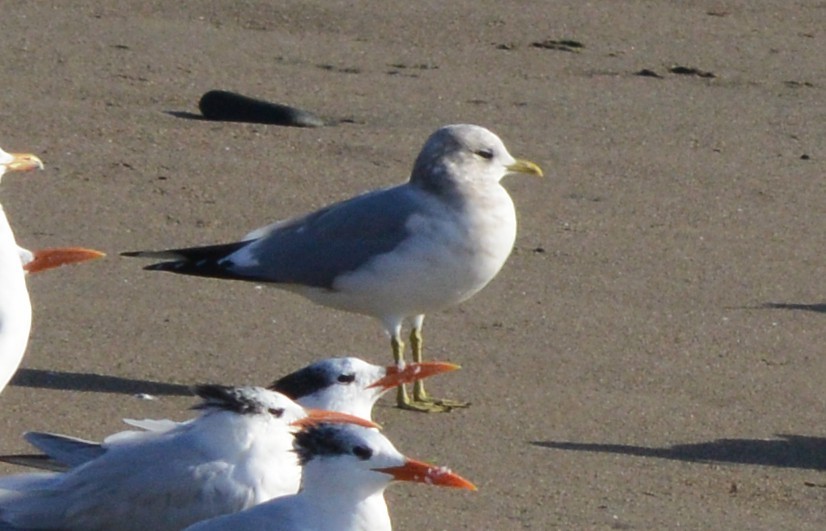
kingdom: Animalia
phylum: Chordata
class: Aves
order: Charadriiformes
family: Laridae
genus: Larus
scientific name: Larus brachyrhynchus
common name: Short-billed gull
